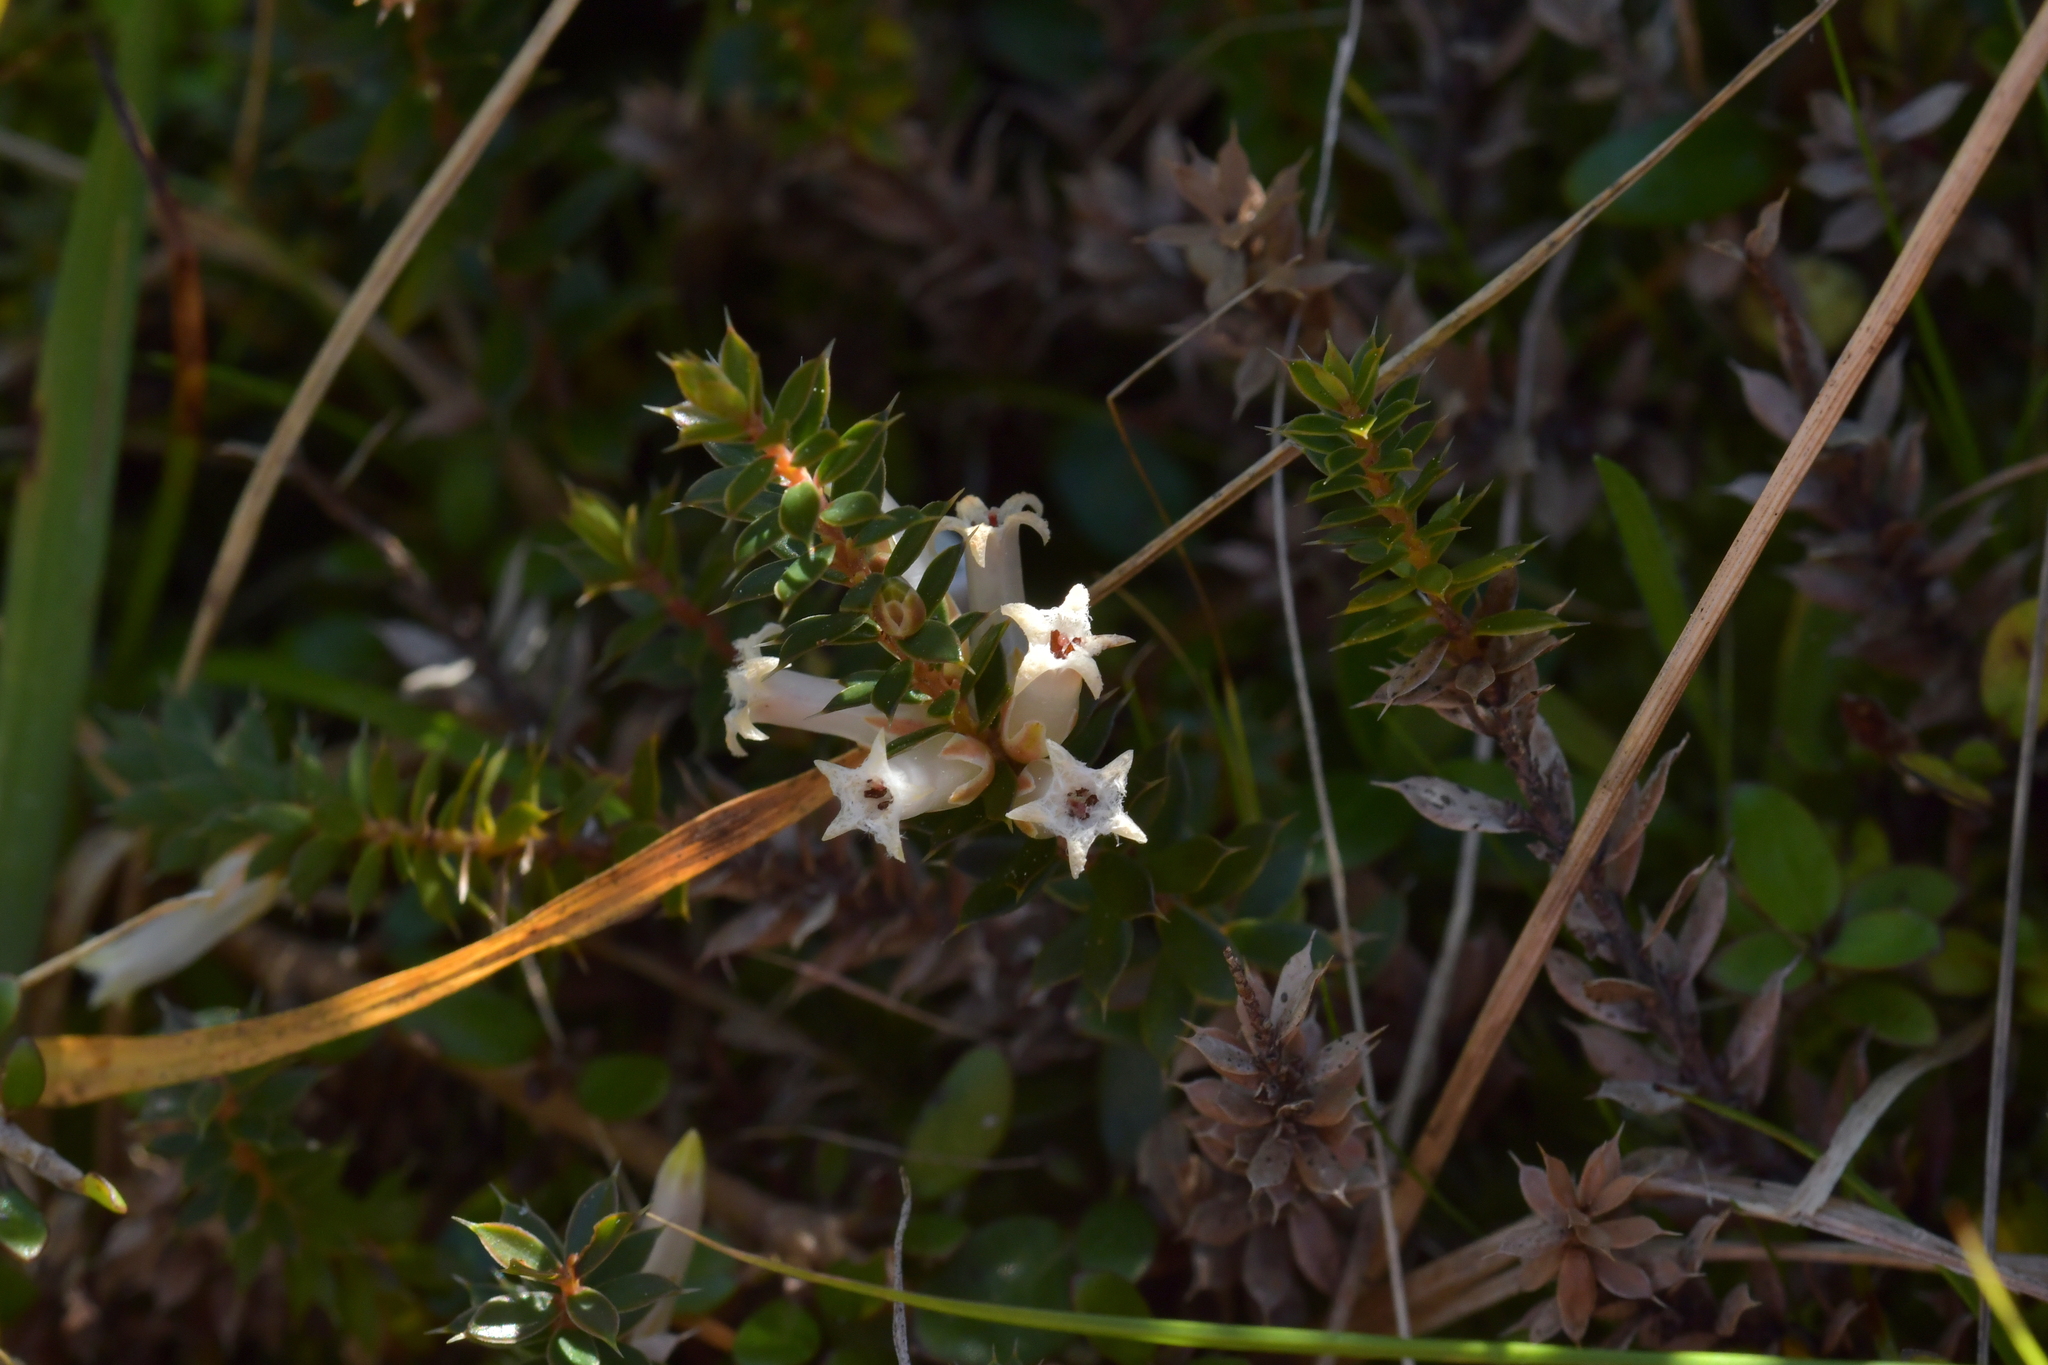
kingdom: Plantae
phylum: Tracheophyta
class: Magnoliopsida
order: Ericales
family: Ericaceae
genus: Styphelia
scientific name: Styphelia nesophila
